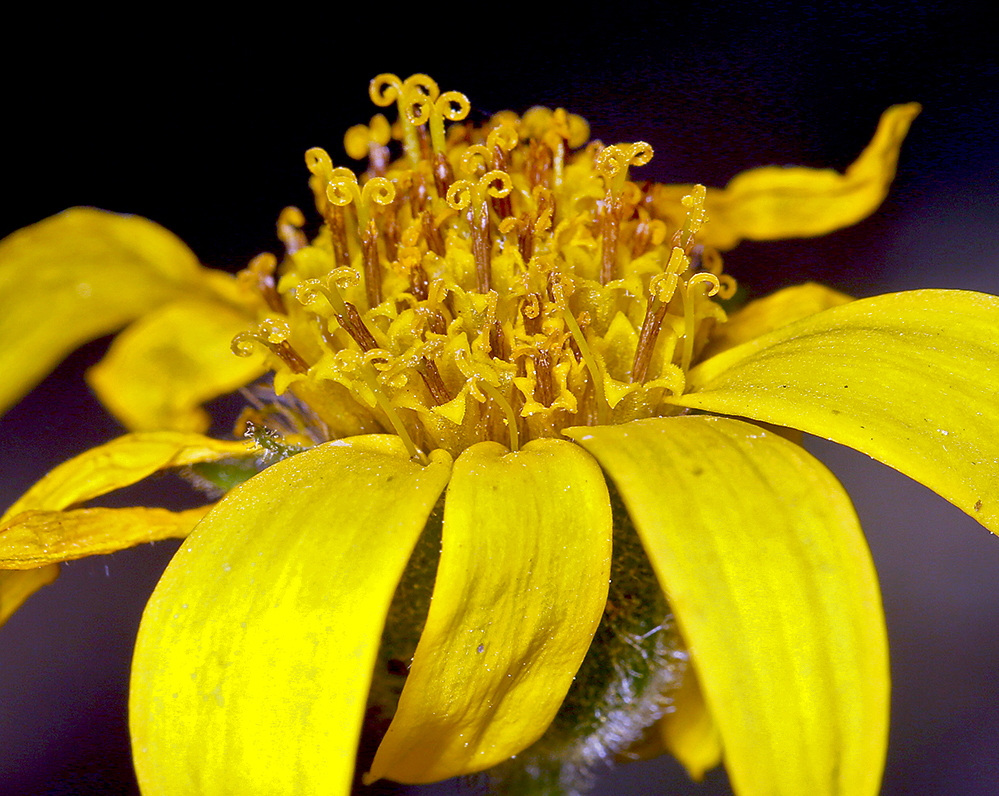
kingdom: Plantae
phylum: Tracheophyta
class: Magnoliopsida
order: Asterales
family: Asteraceae
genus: Arnica
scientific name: Arnica lanceolata
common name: Lance-leaved arnica
